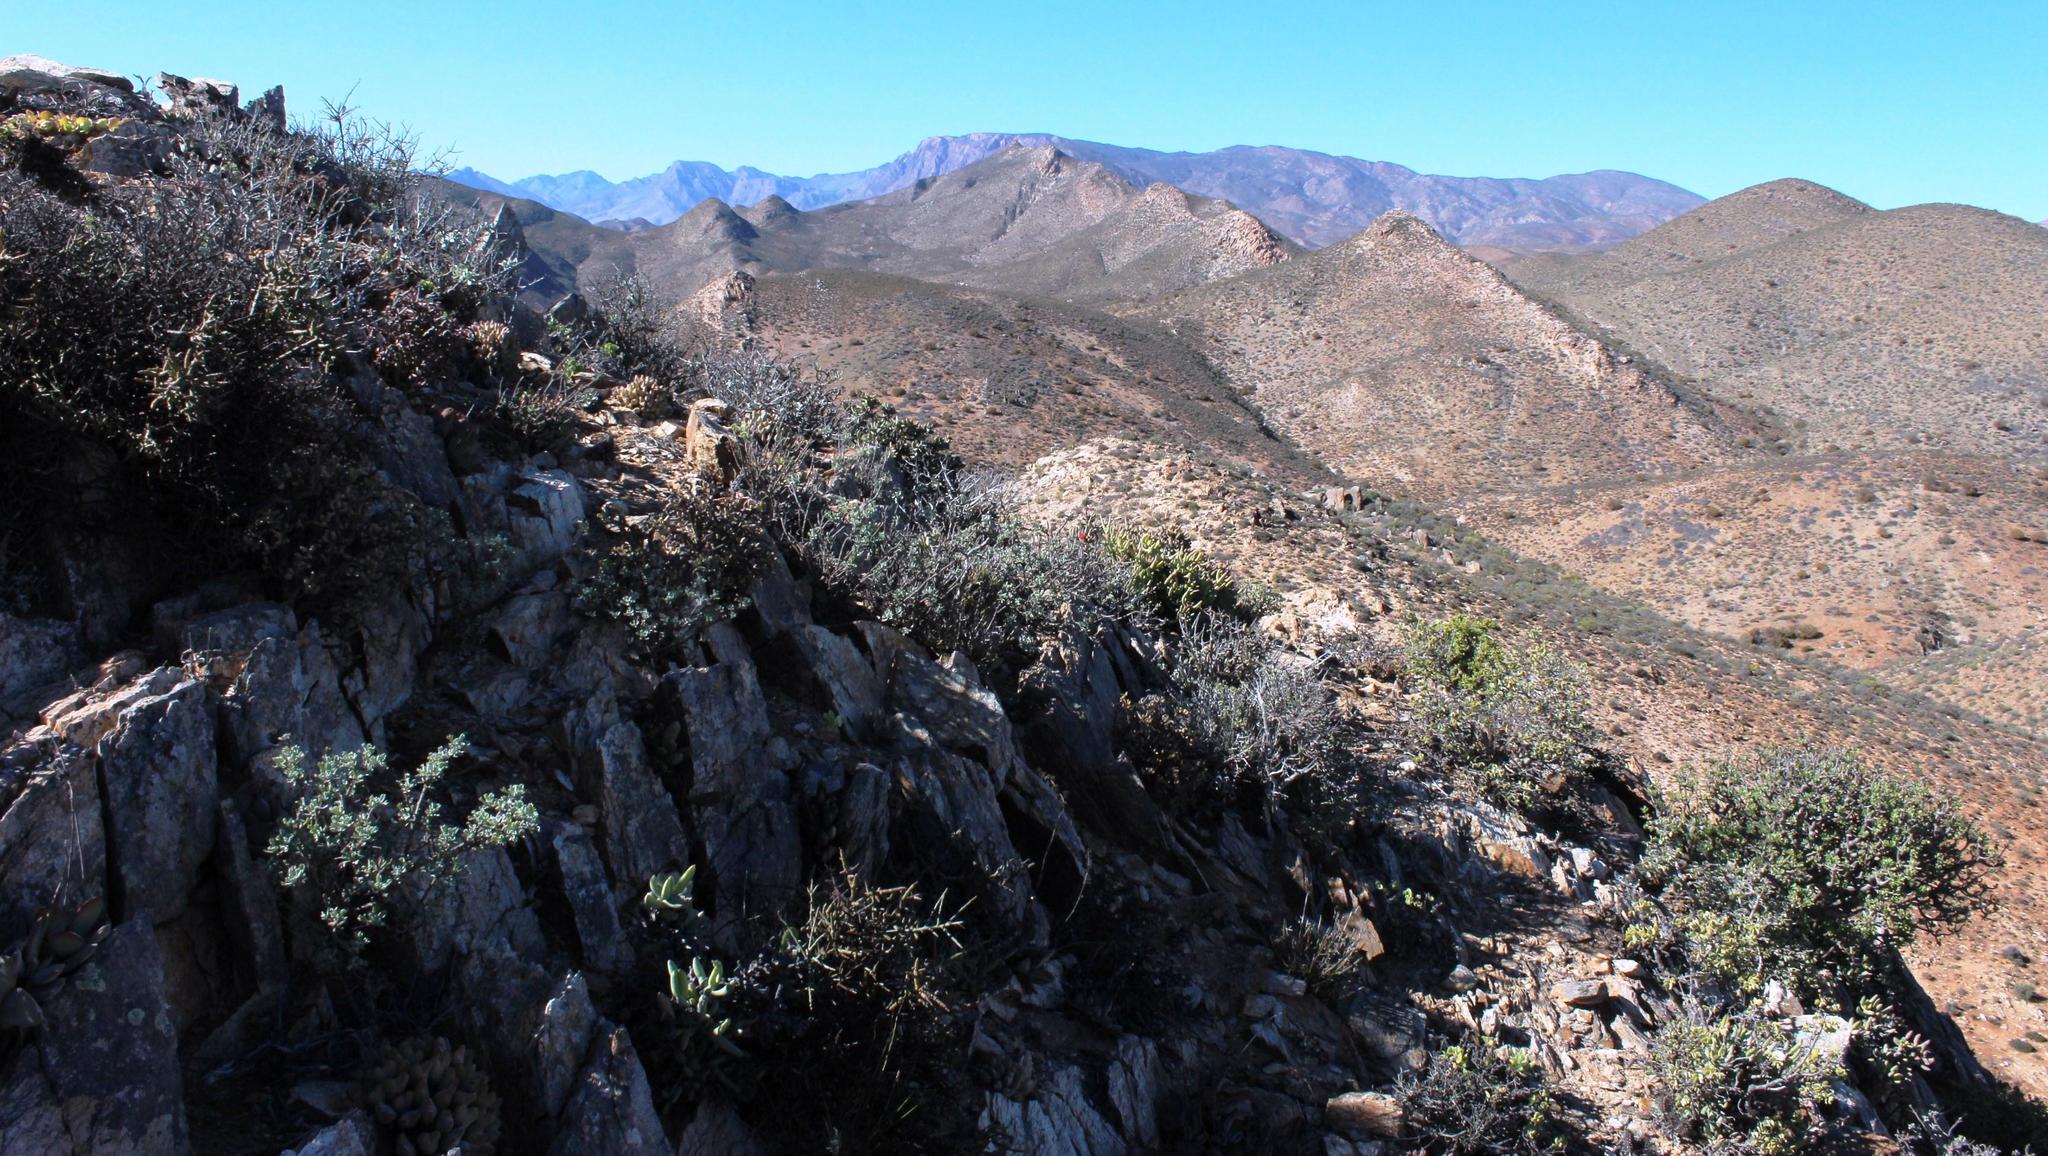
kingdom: Plantae
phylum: Tracheophyta
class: Magnoliopsida
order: Saxifragales
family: Crassulaceae
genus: Crassula
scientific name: Crassula sericea
